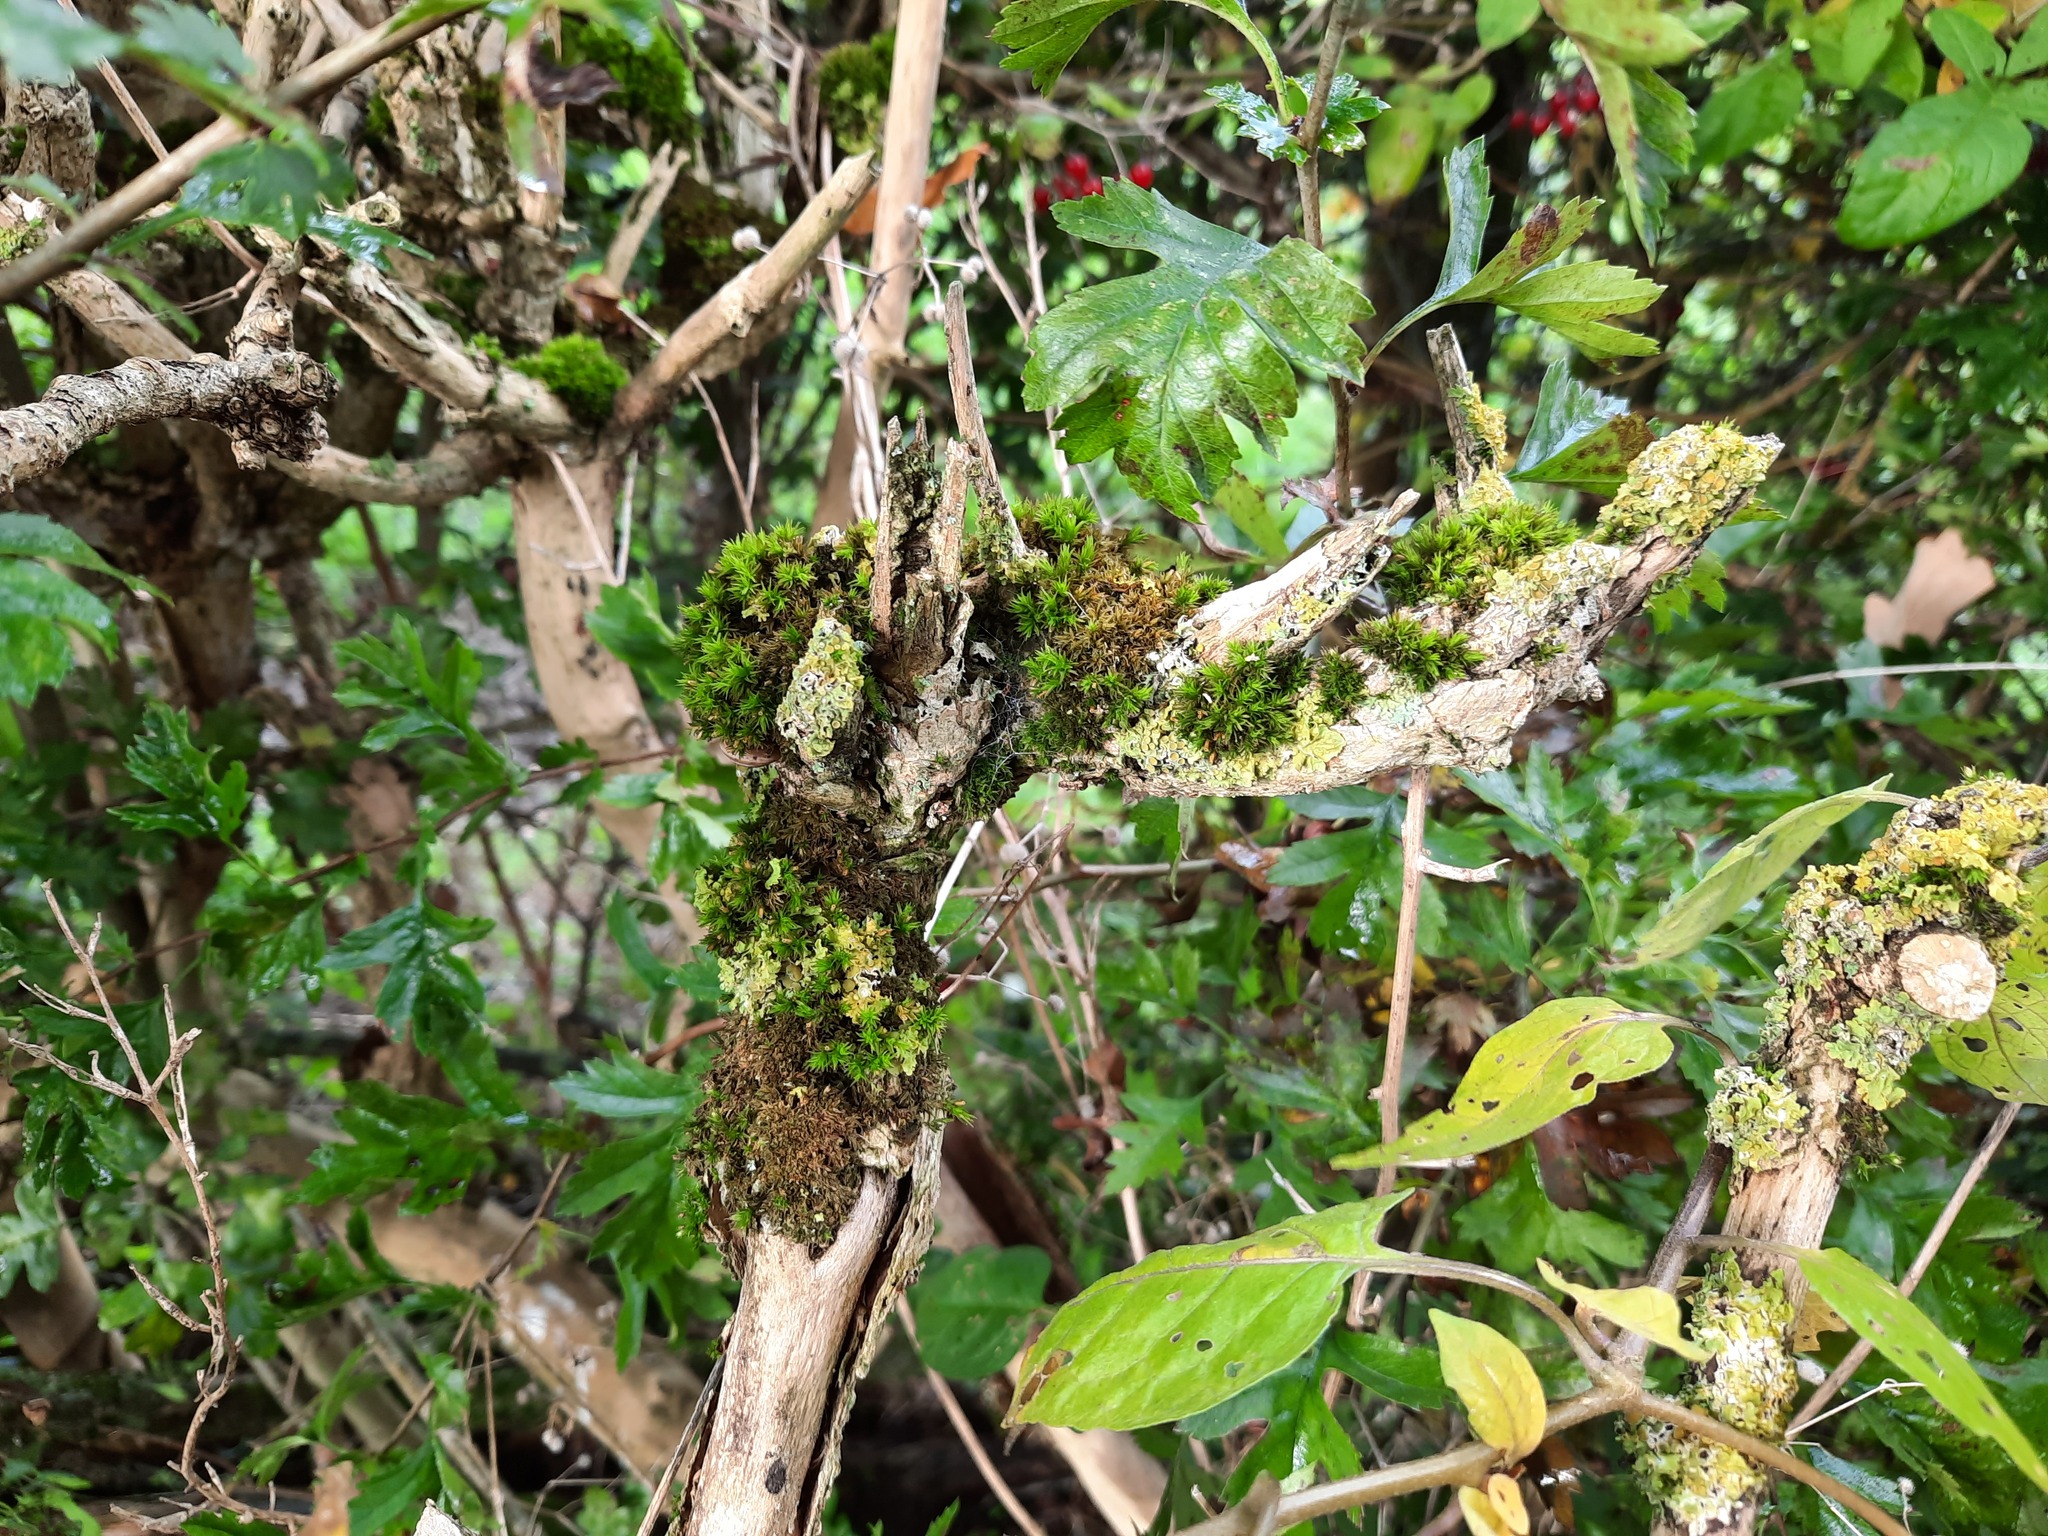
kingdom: Fungi
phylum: Ascomycota
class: Lecanoromycetes
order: Teloschistales
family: Teloschistaceae
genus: Xanthoria
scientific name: Xanthoria parietina
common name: Common orange lichen
